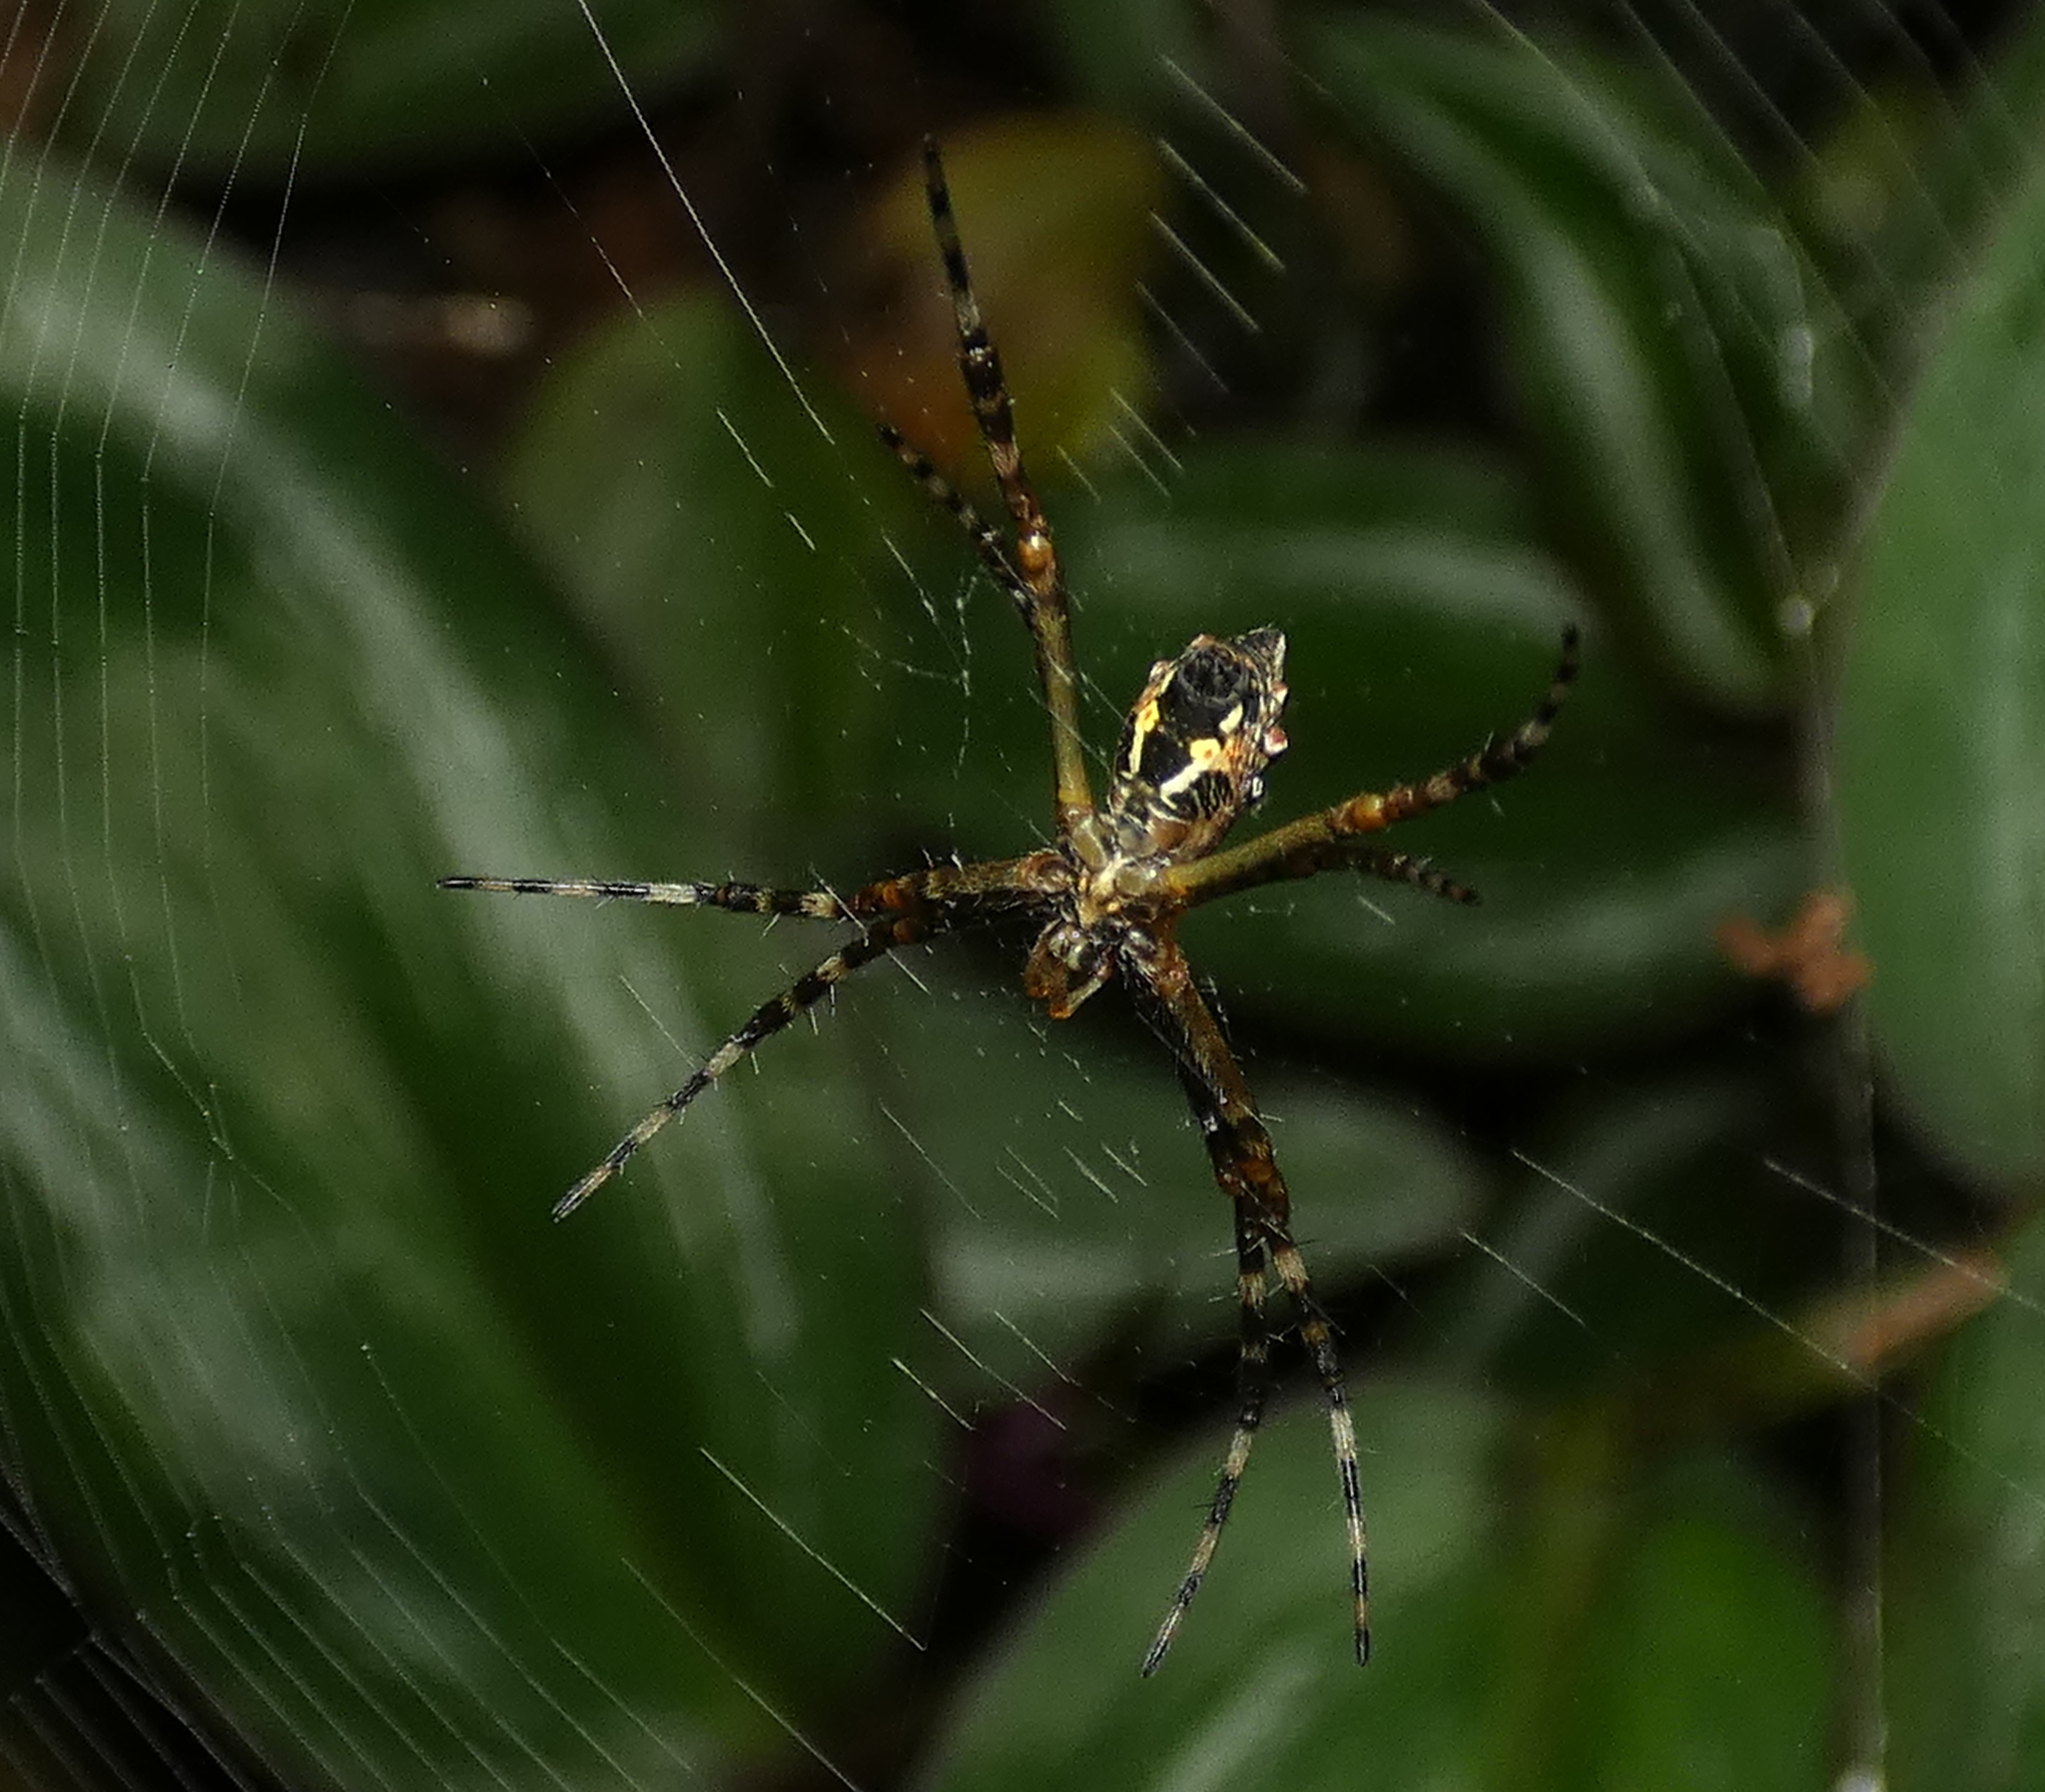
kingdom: Animalia
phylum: Arthropoda
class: Arachnida
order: Araneae
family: Araneidae
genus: Argiope
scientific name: Argiope argentata
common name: Orb weavers
